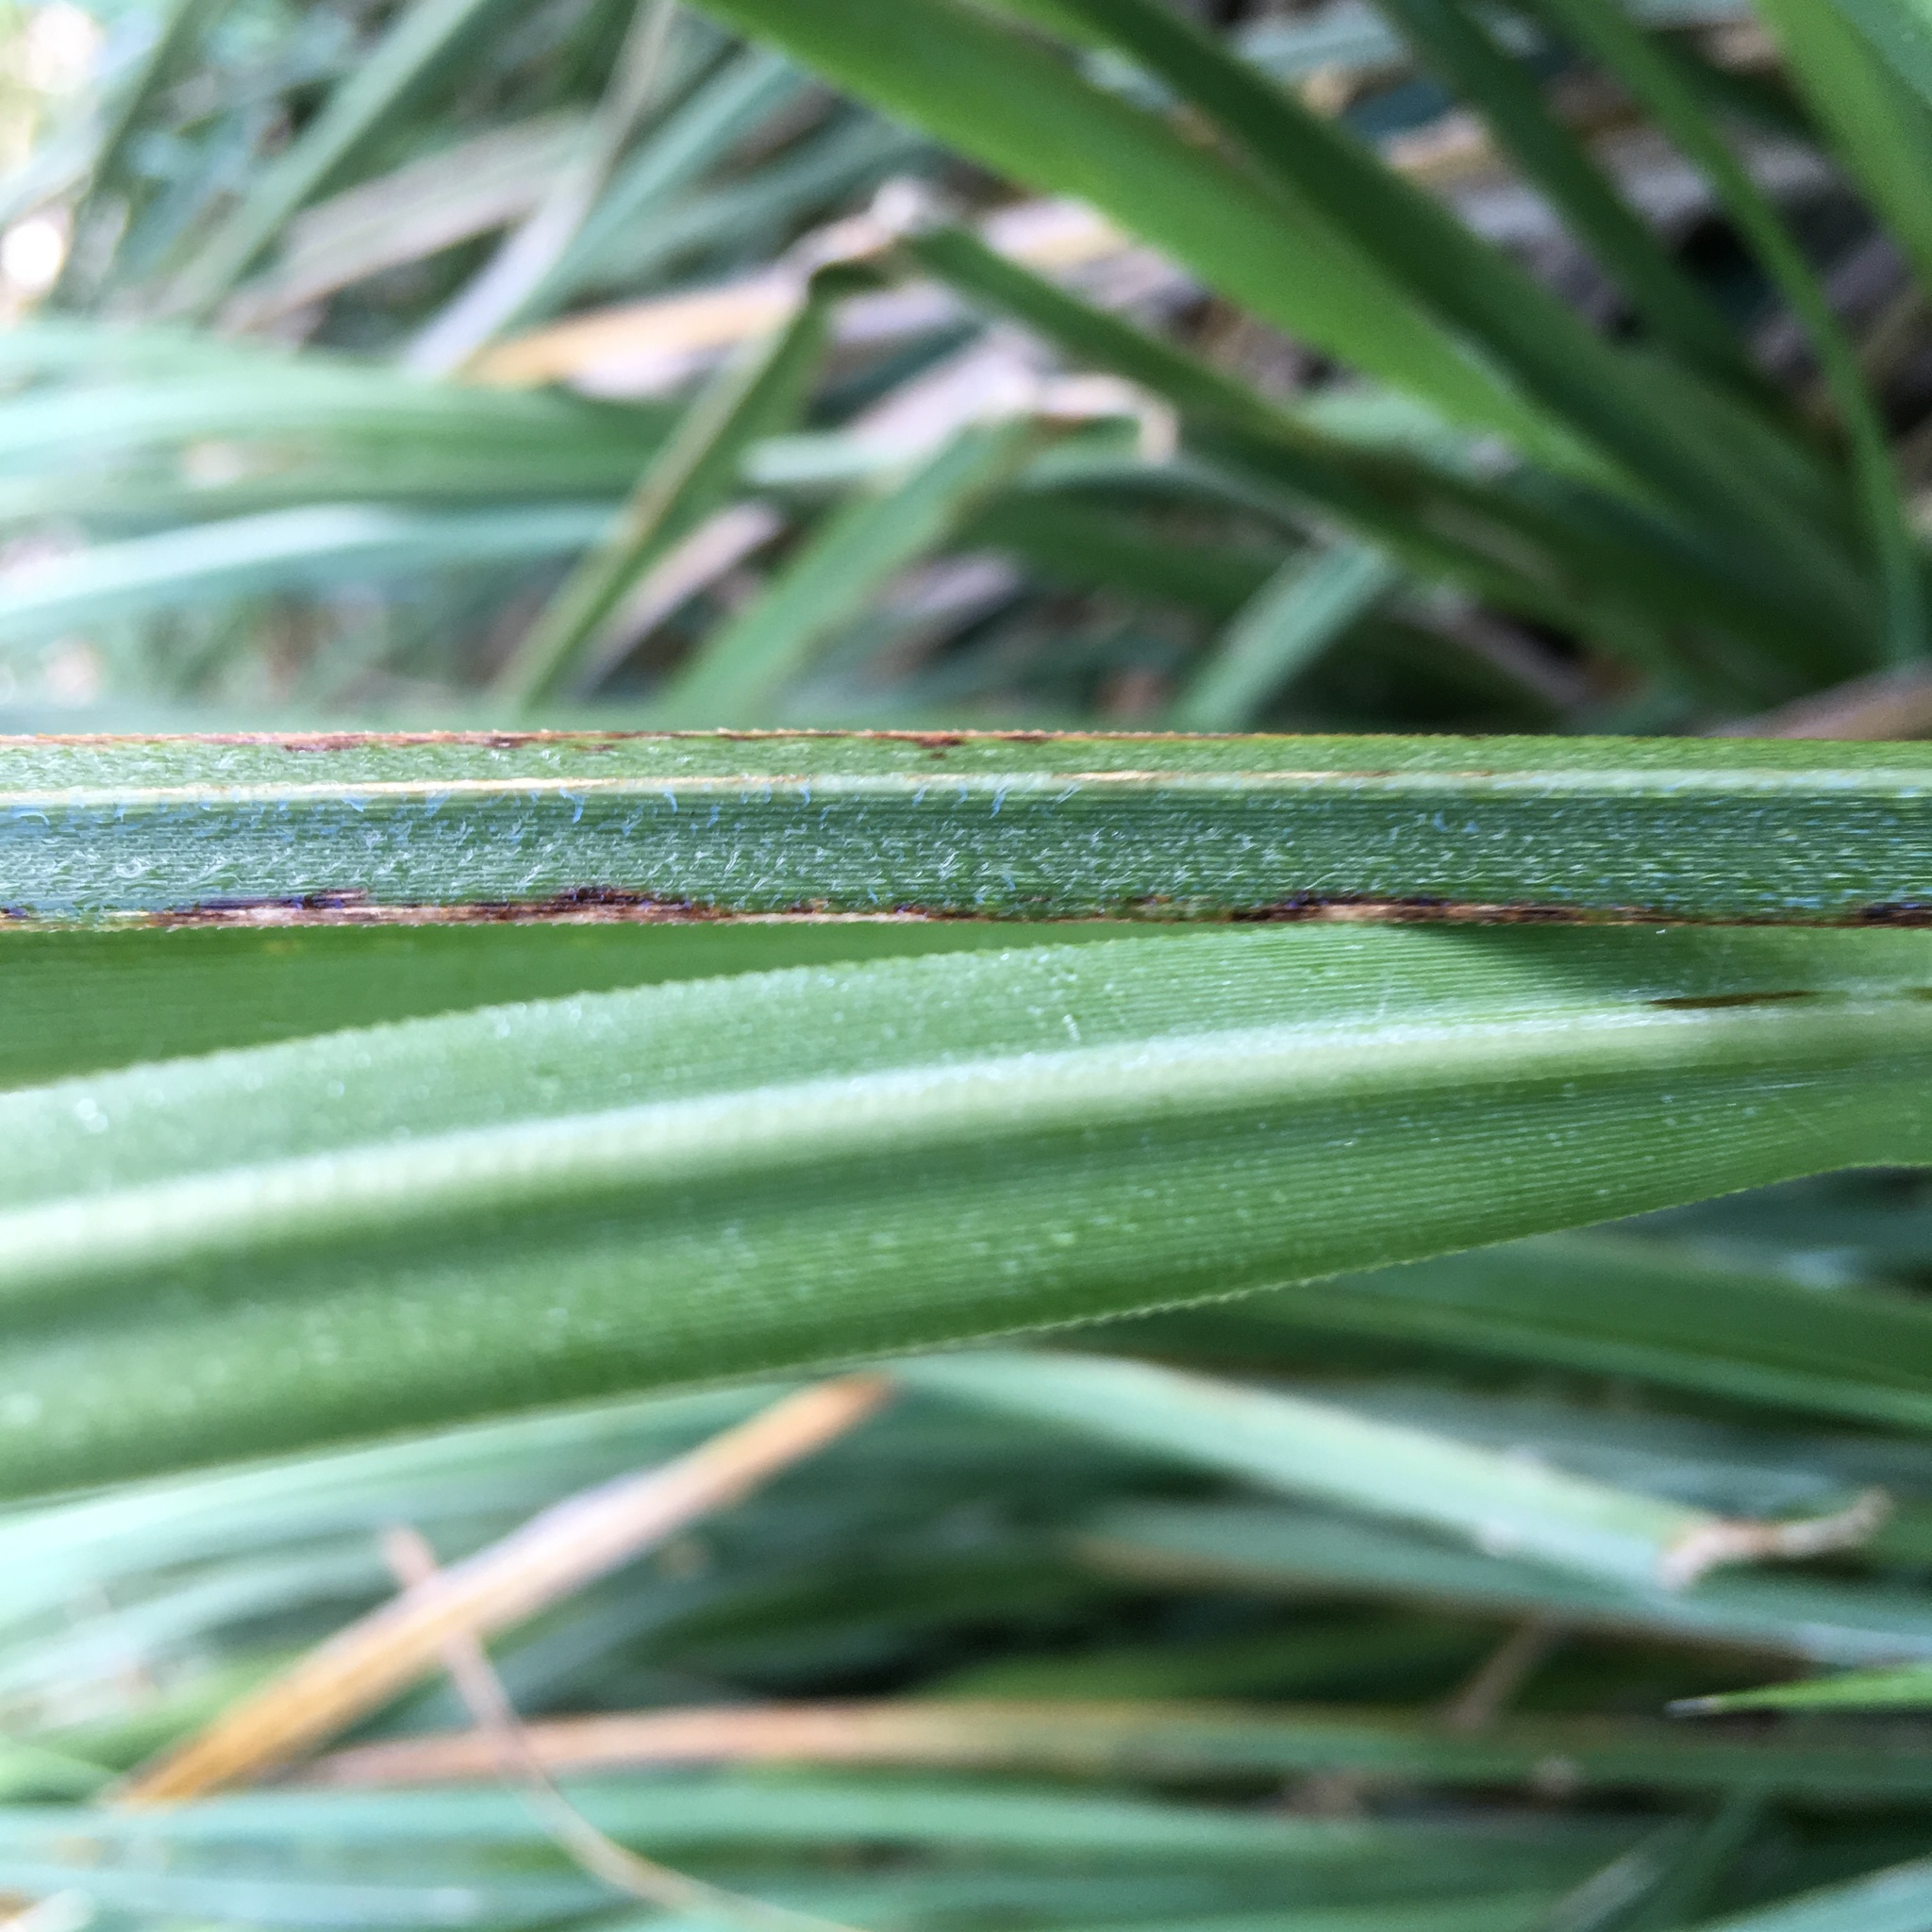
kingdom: Plantae
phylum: Tracheophyta
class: Liliopsida
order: Poales
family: Poaceae
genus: Cortaderia
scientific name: Cortaderia selloana
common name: Uruguayan pampas grass
